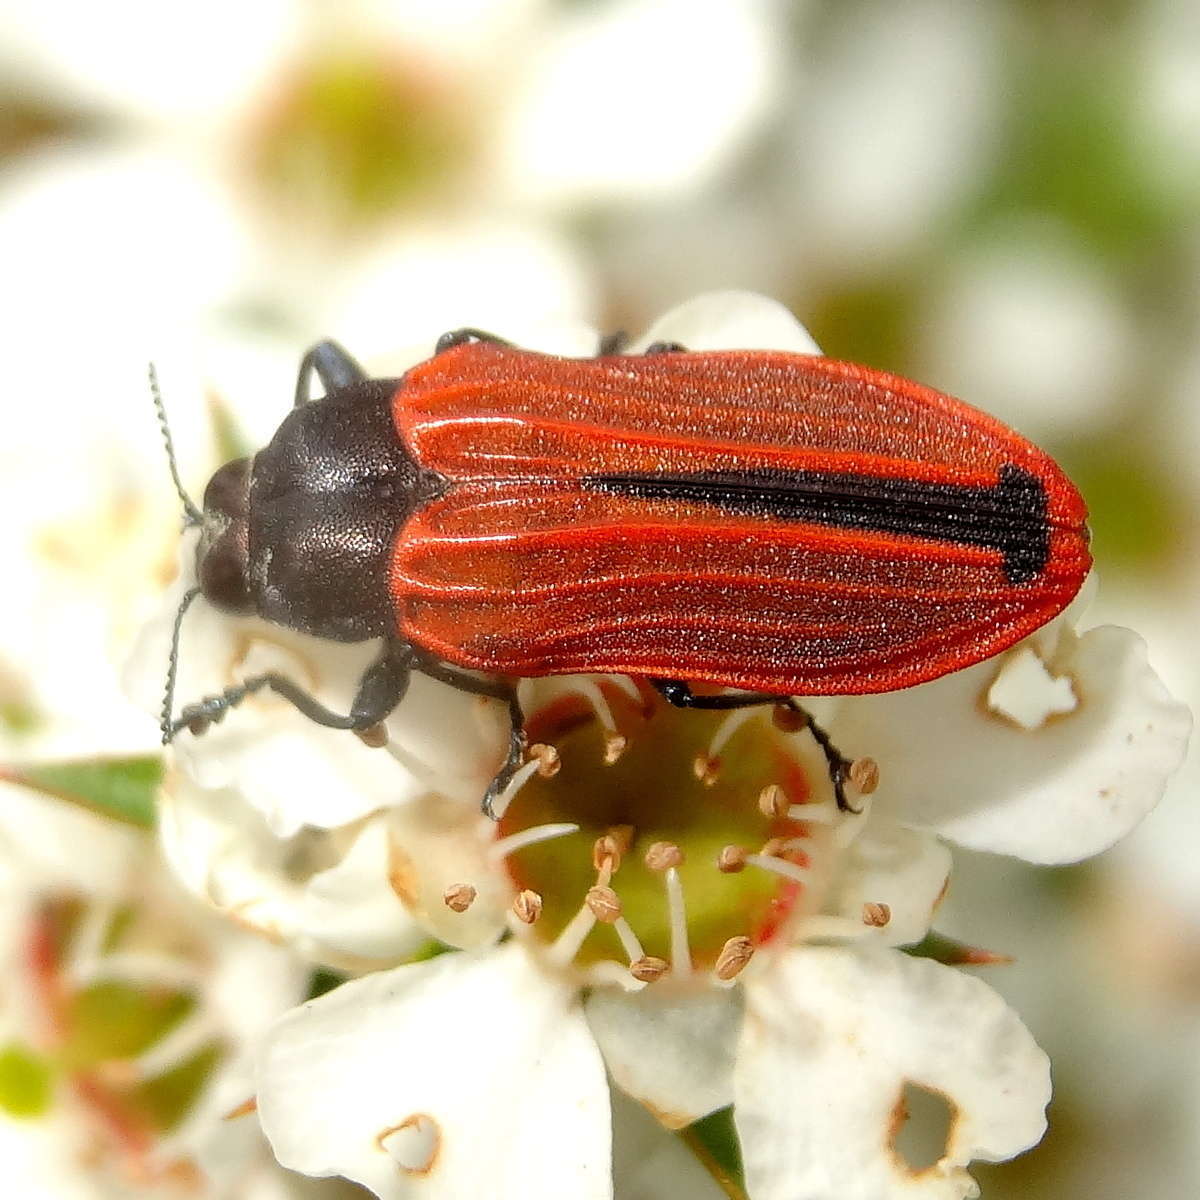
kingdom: Animalia
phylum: Arthropoda
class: Insecta
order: Coleoptera
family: Buprestidae
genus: Castiarina
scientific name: Castiarina erythroptera
